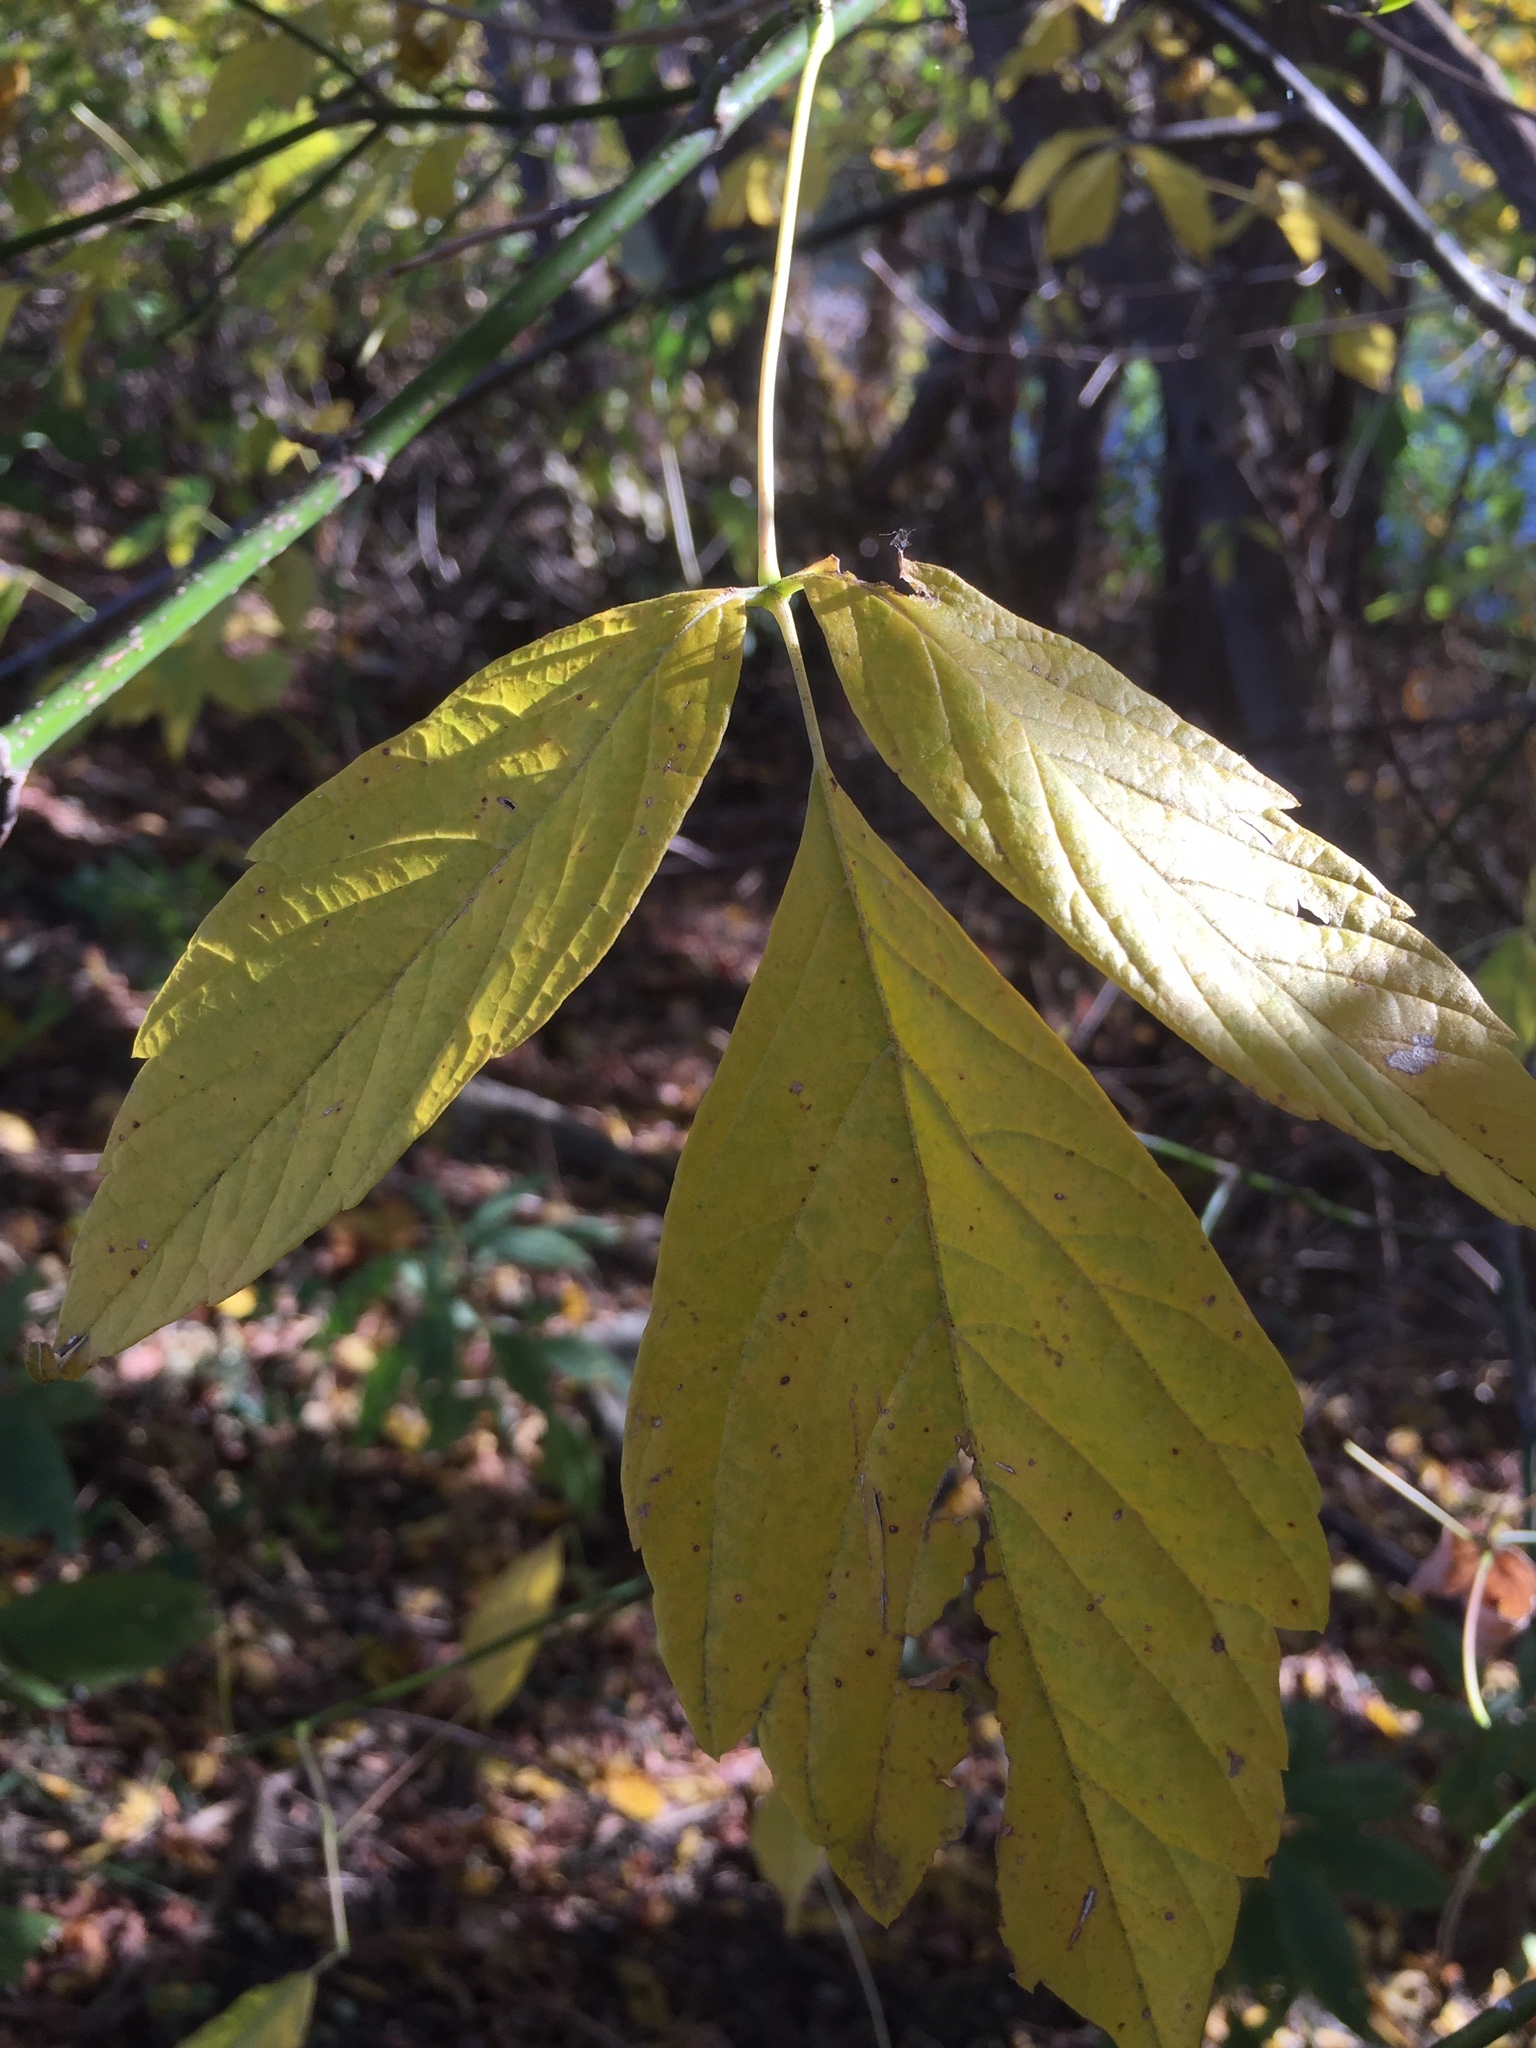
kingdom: Plantae
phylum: Tracheophyta
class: Magnoliopsida
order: Sapindales
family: Sapindaceae
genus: Acer
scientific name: Acer negundo
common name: Ashleaf maple
